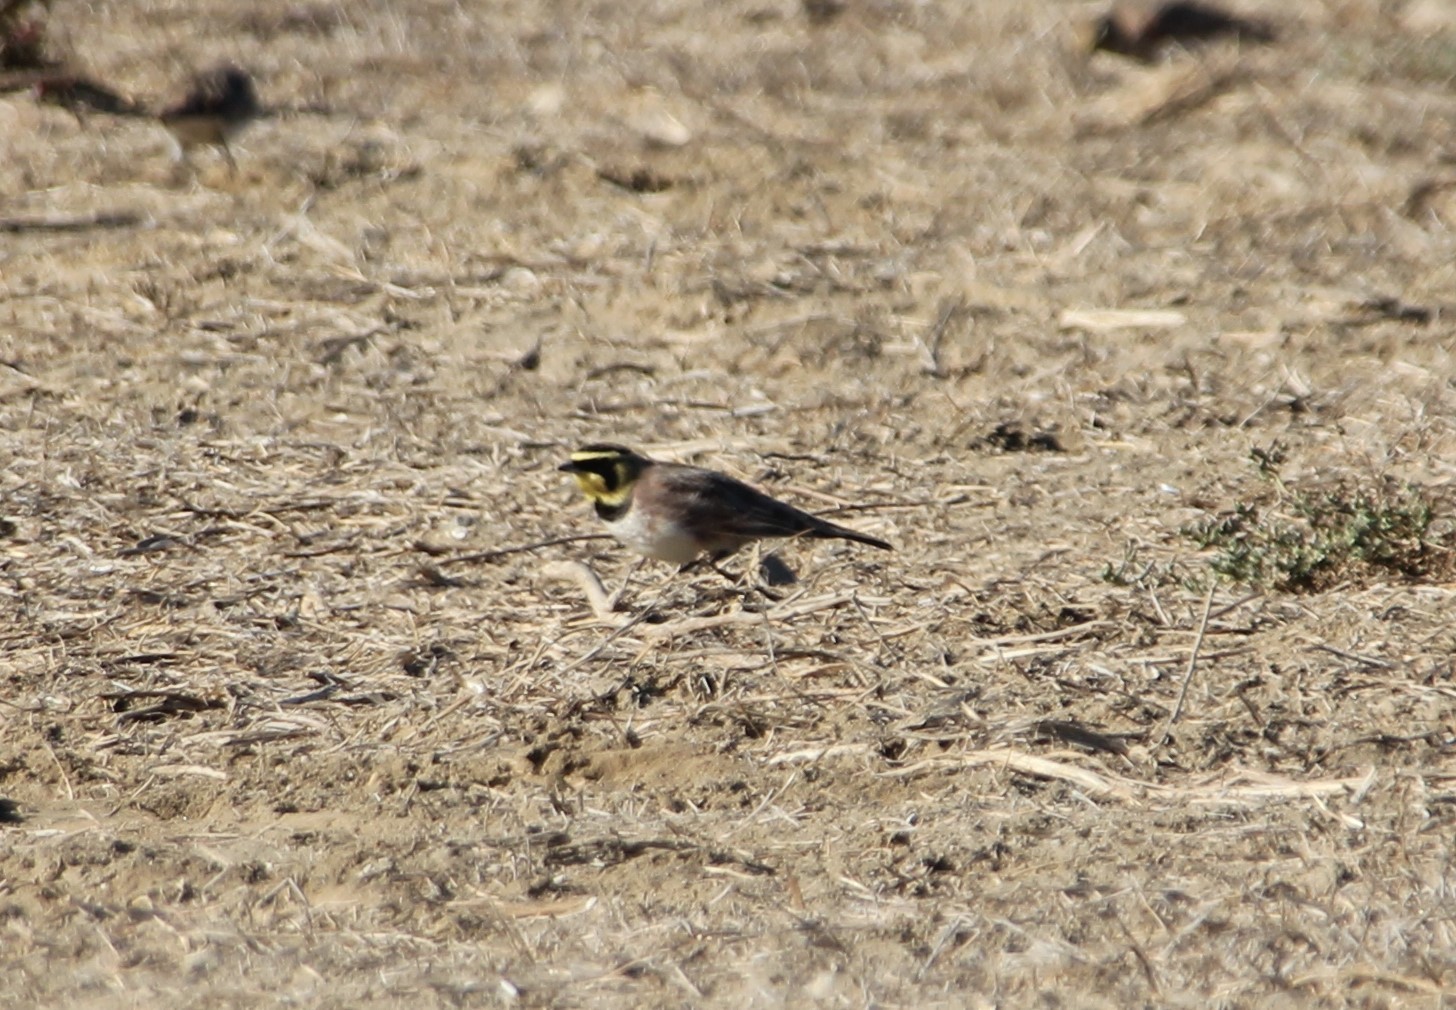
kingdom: Animalia
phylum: Chordata
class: Aves
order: Passeriformes
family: Alaudidae
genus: Eremophila
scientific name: Eremophila alpestris
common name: Horned lark
